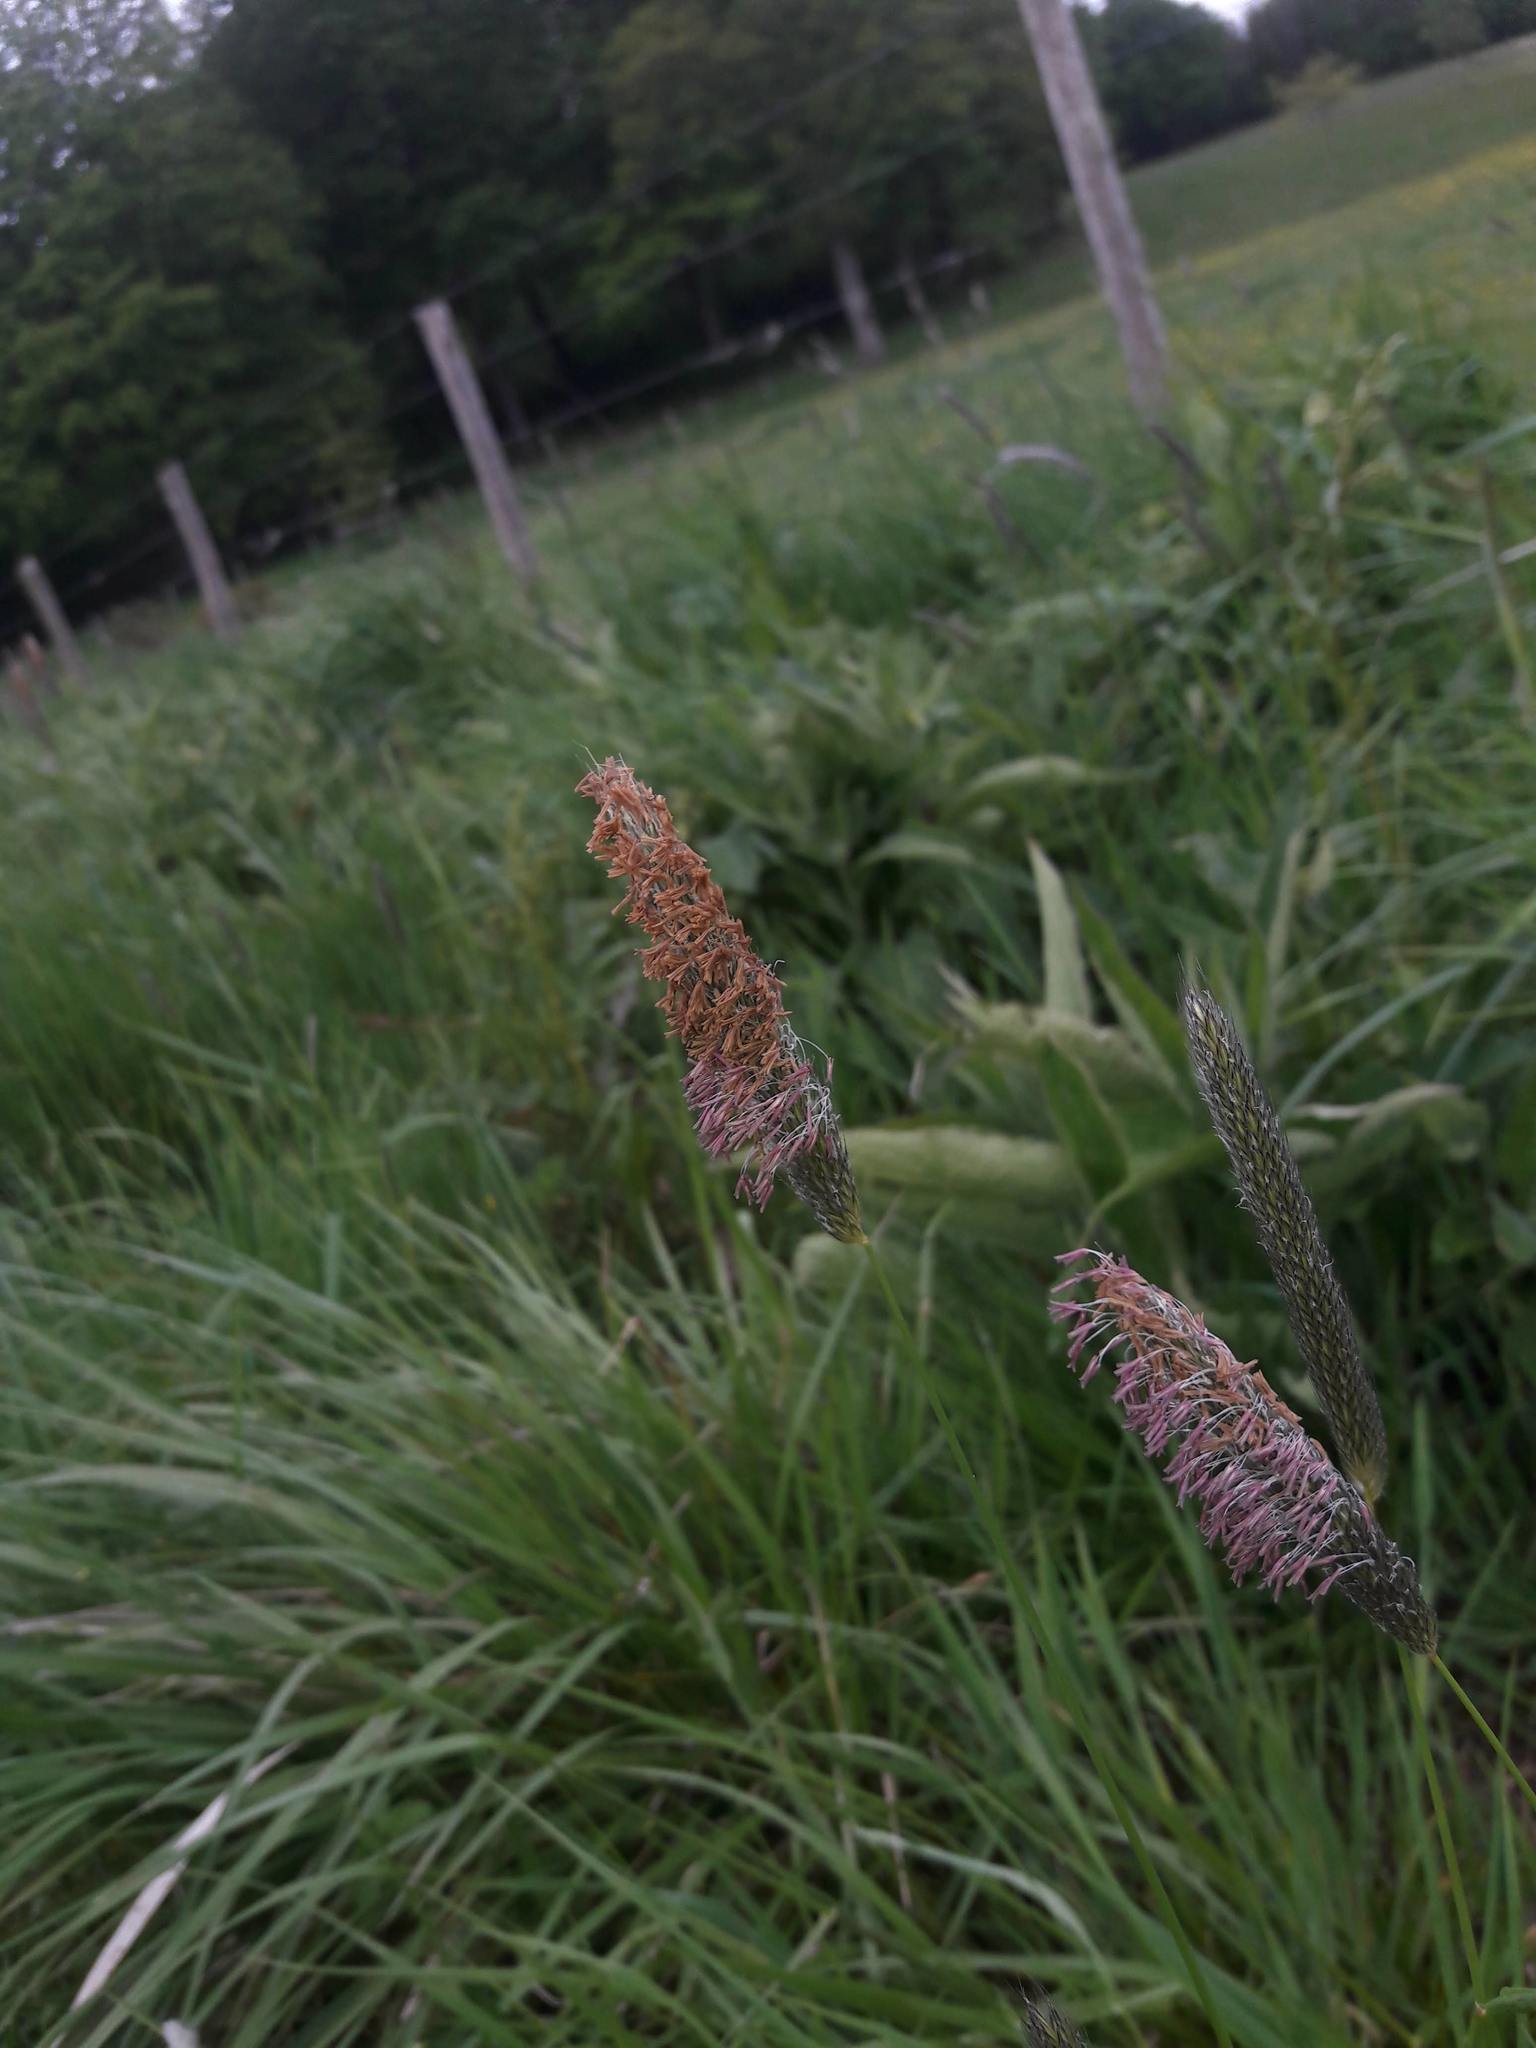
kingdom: Plantae
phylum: Tracheophyta
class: Liliopsida
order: Poales
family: Poaceae
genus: Alopecurus
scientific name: Alopecurus pratensis
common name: Meadow foxtail
